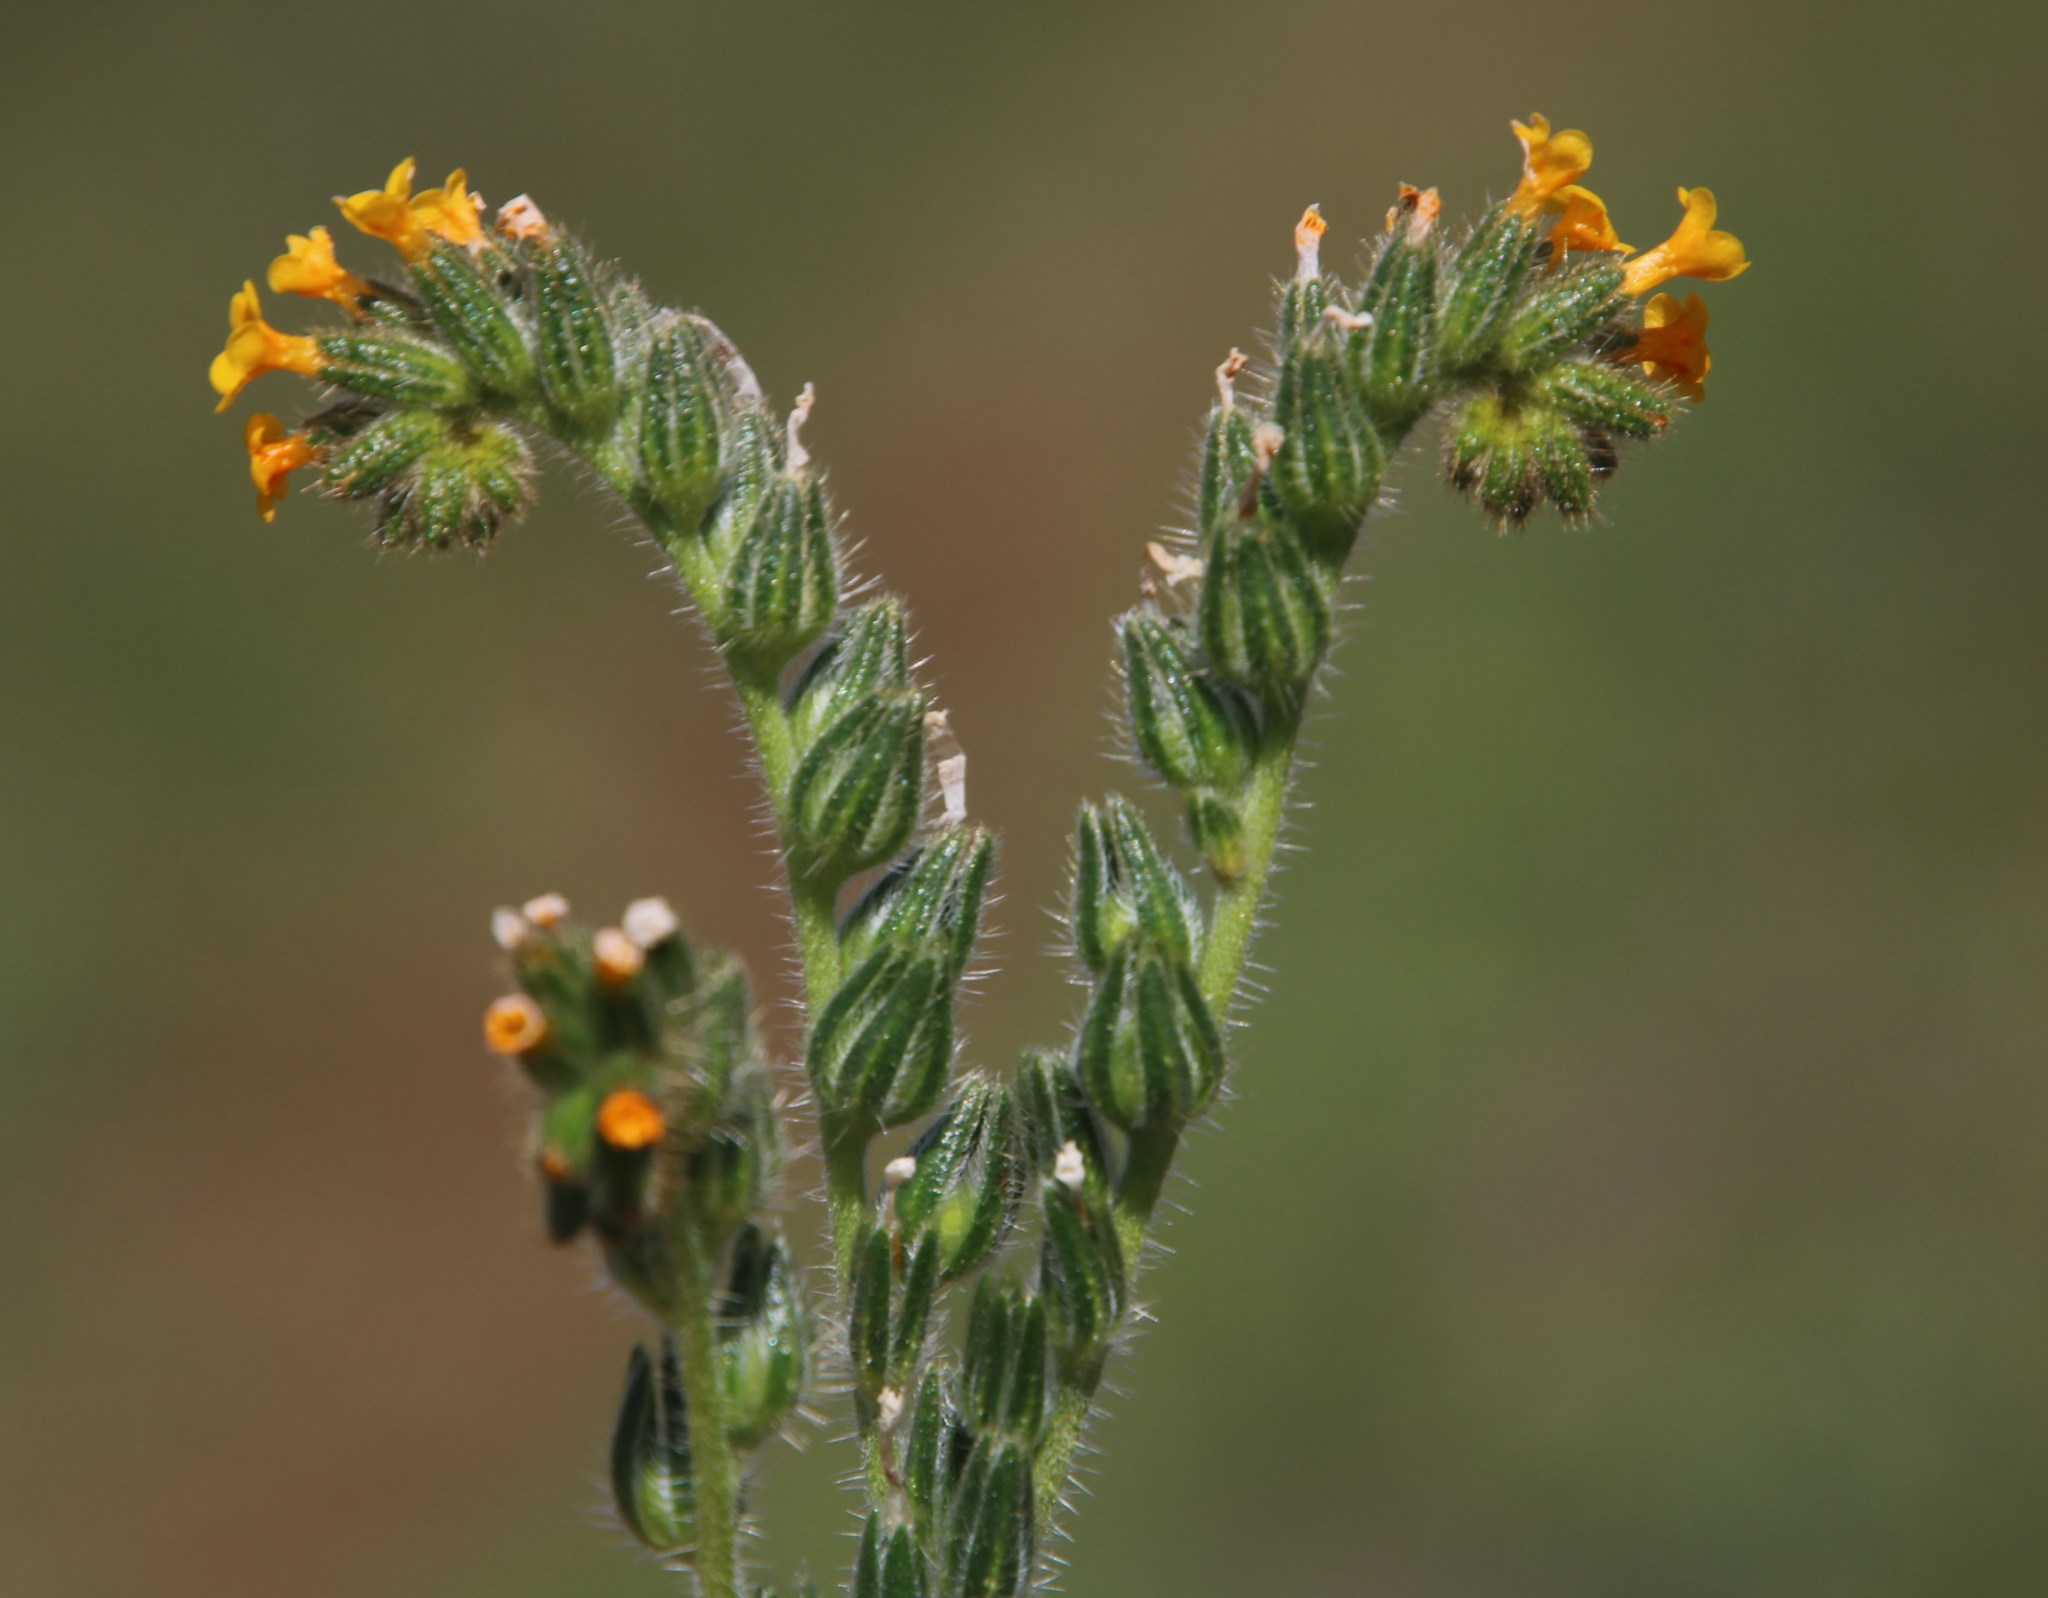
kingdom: Plantae
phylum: Tracheophyta
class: Magnoliopsida
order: Boraginales
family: Boraginaceae
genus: Amsinckia
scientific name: Amsinckia menziesii
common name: Menzies' fiddleneck
